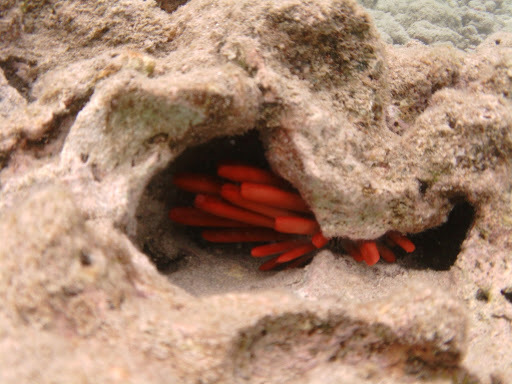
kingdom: Animalia
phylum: Echinodermata
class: Echinoidea
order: Camarodonta
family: Echinometridae
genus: Heterocentrotus
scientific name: Heterocentrotus mamillatus
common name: Slate pencil urchin
